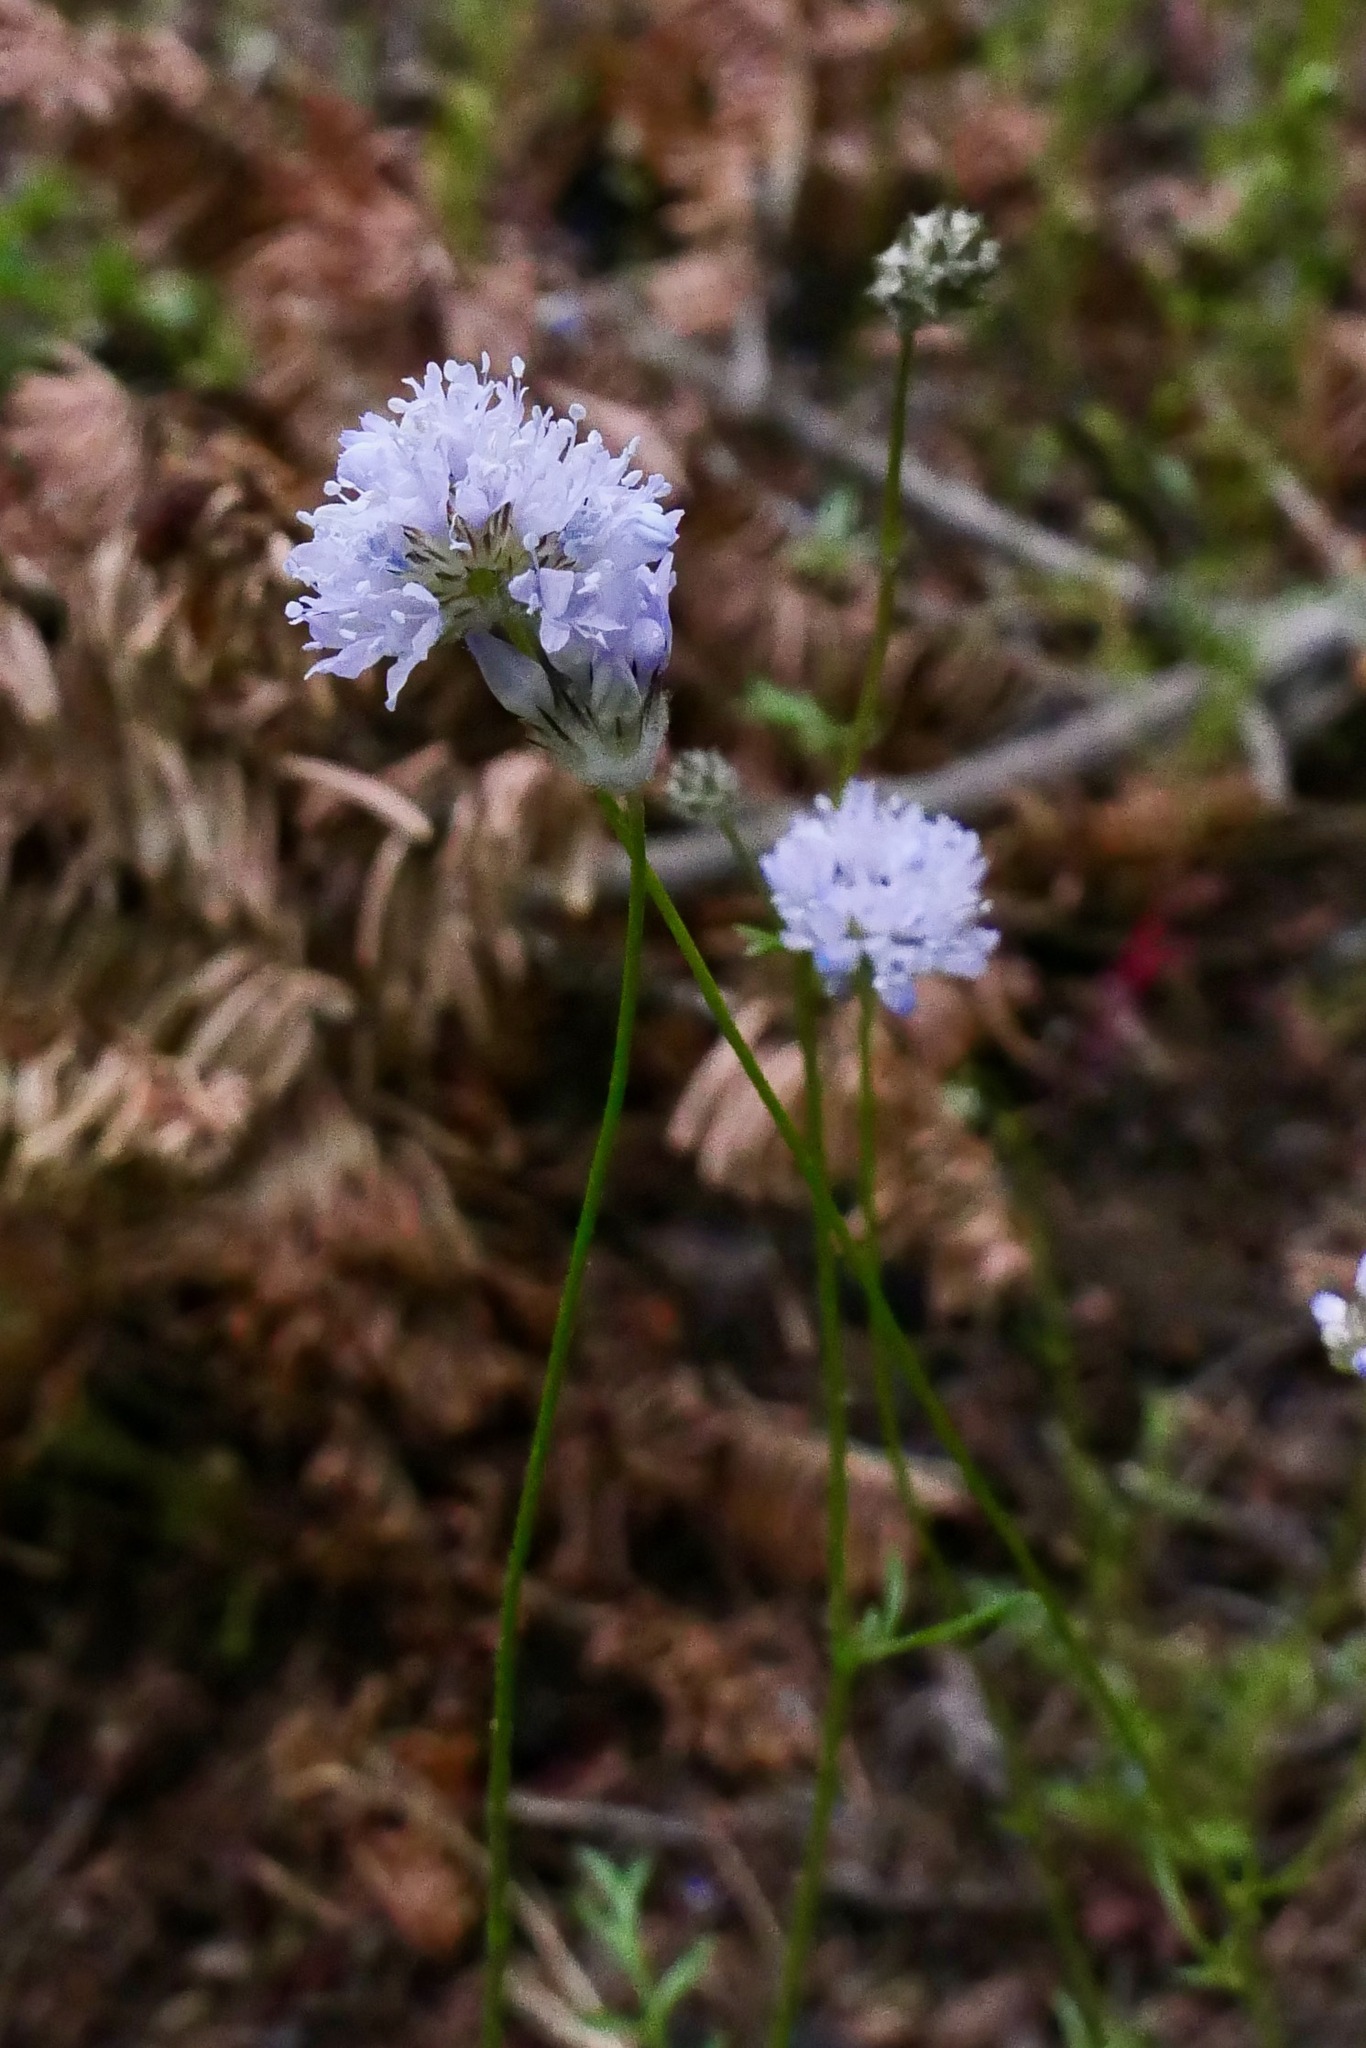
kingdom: Plantae
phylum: Tracheophyta
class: Magnoliopsida
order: Ericales
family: Polemoniaceae
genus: Gilia
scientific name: Gilia capitata
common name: Bluehead gilia
